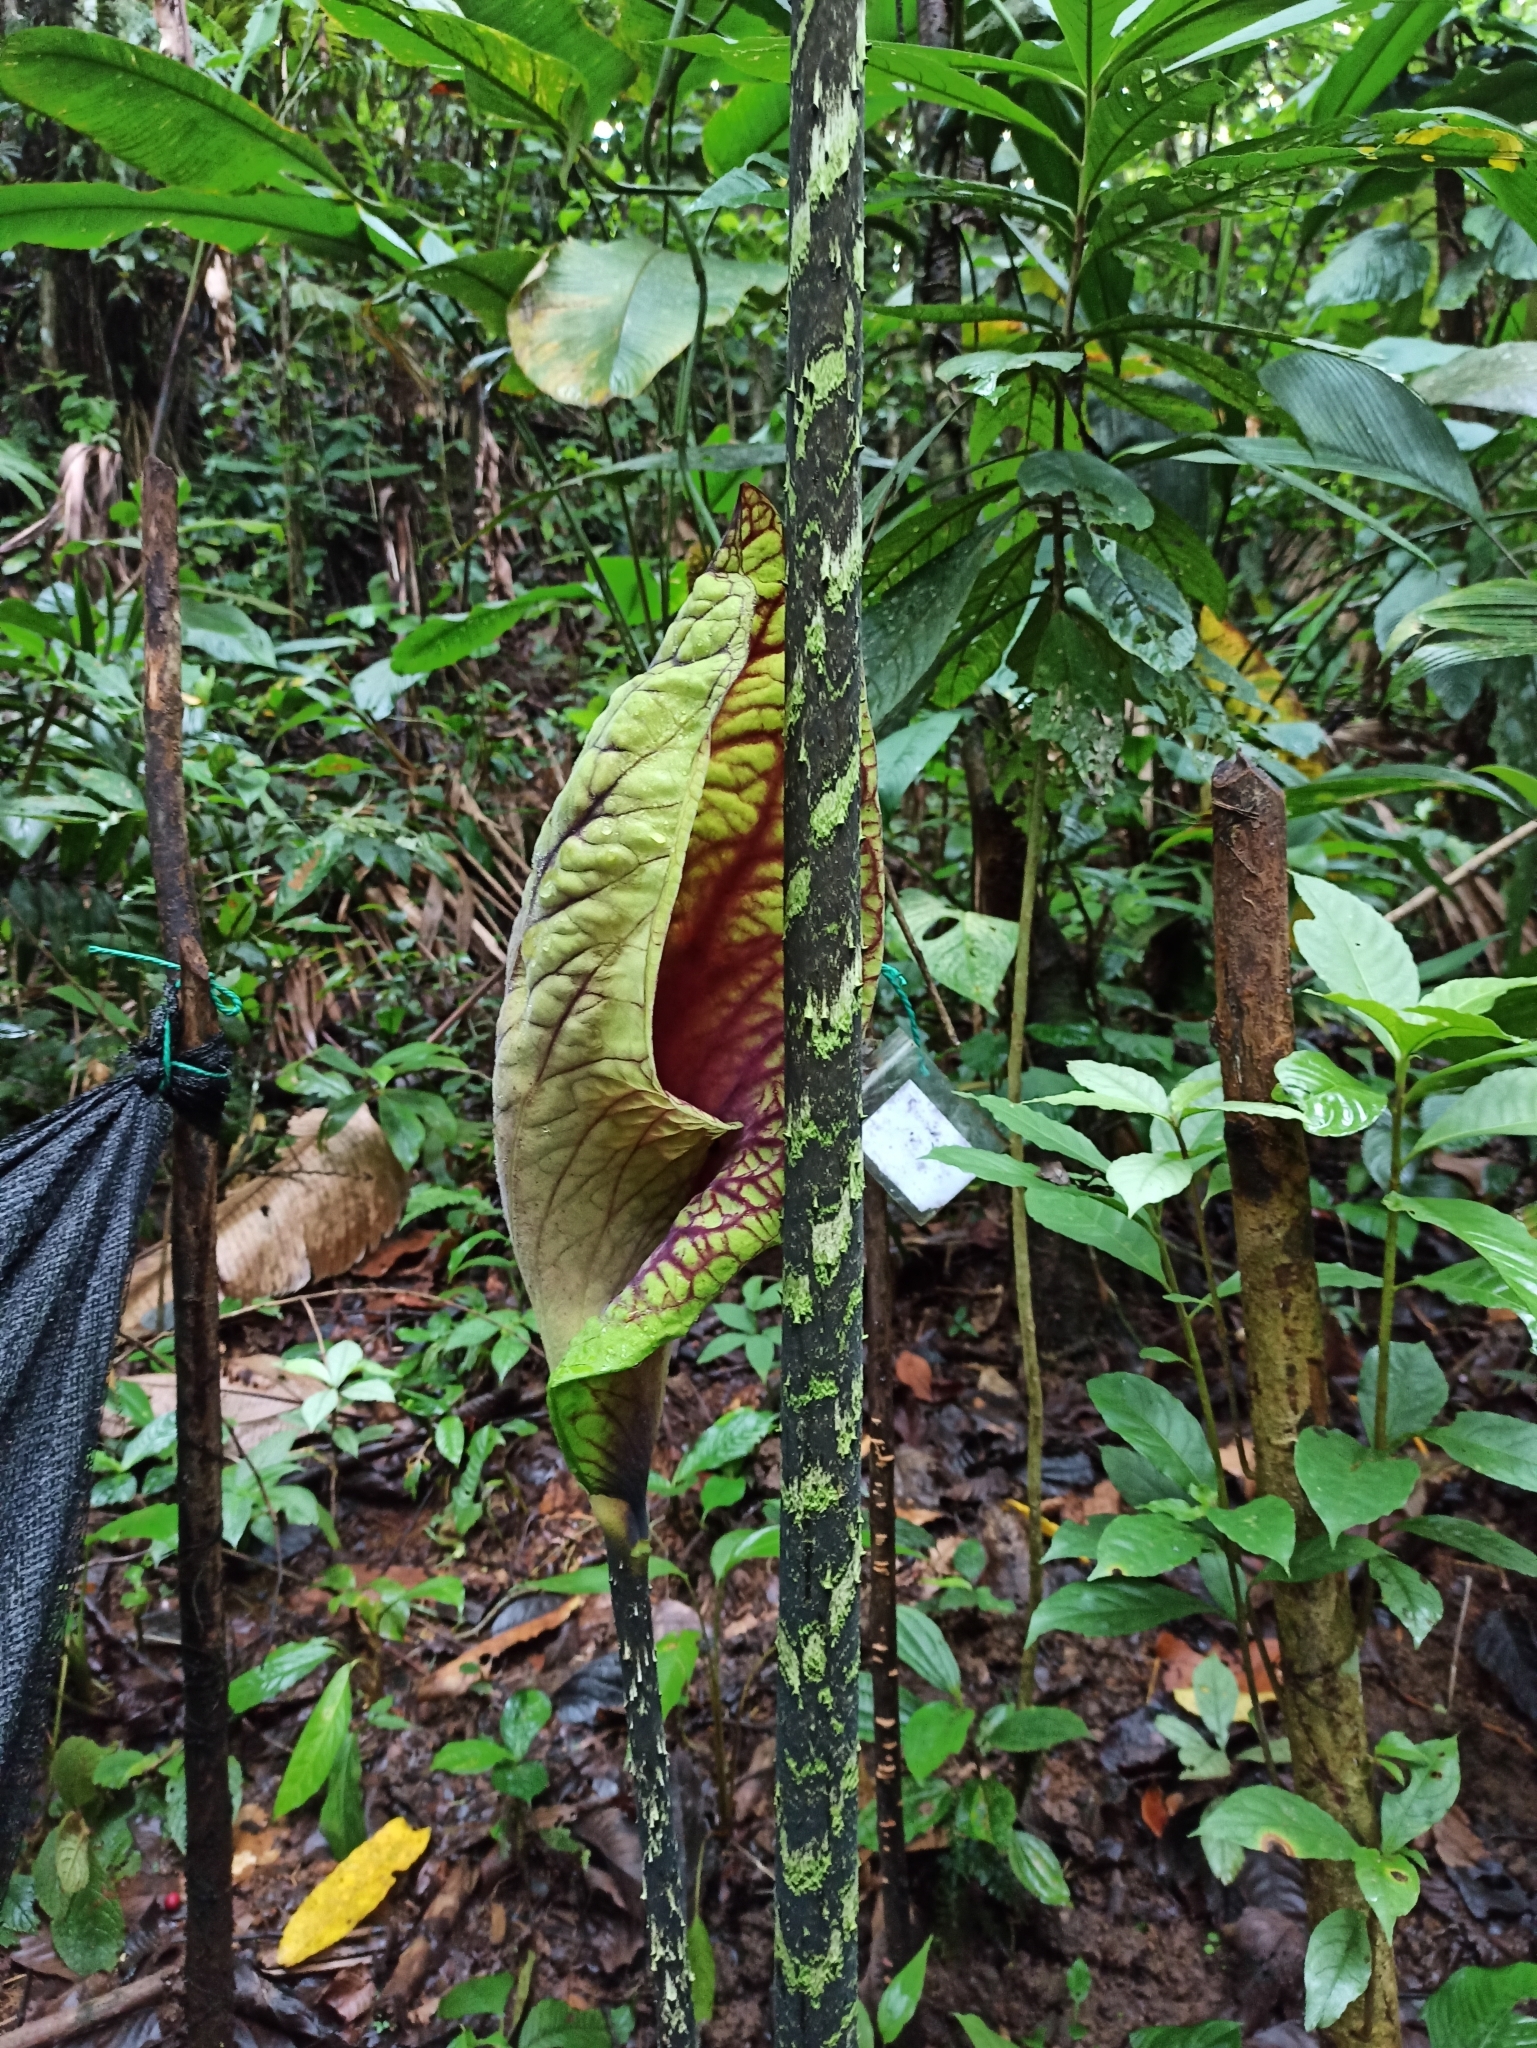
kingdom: Plantae
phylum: Tracheophyta
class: Liliopsida
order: Alismatales
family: Araceae
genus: Dracontium
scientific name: Dracontium croatii
